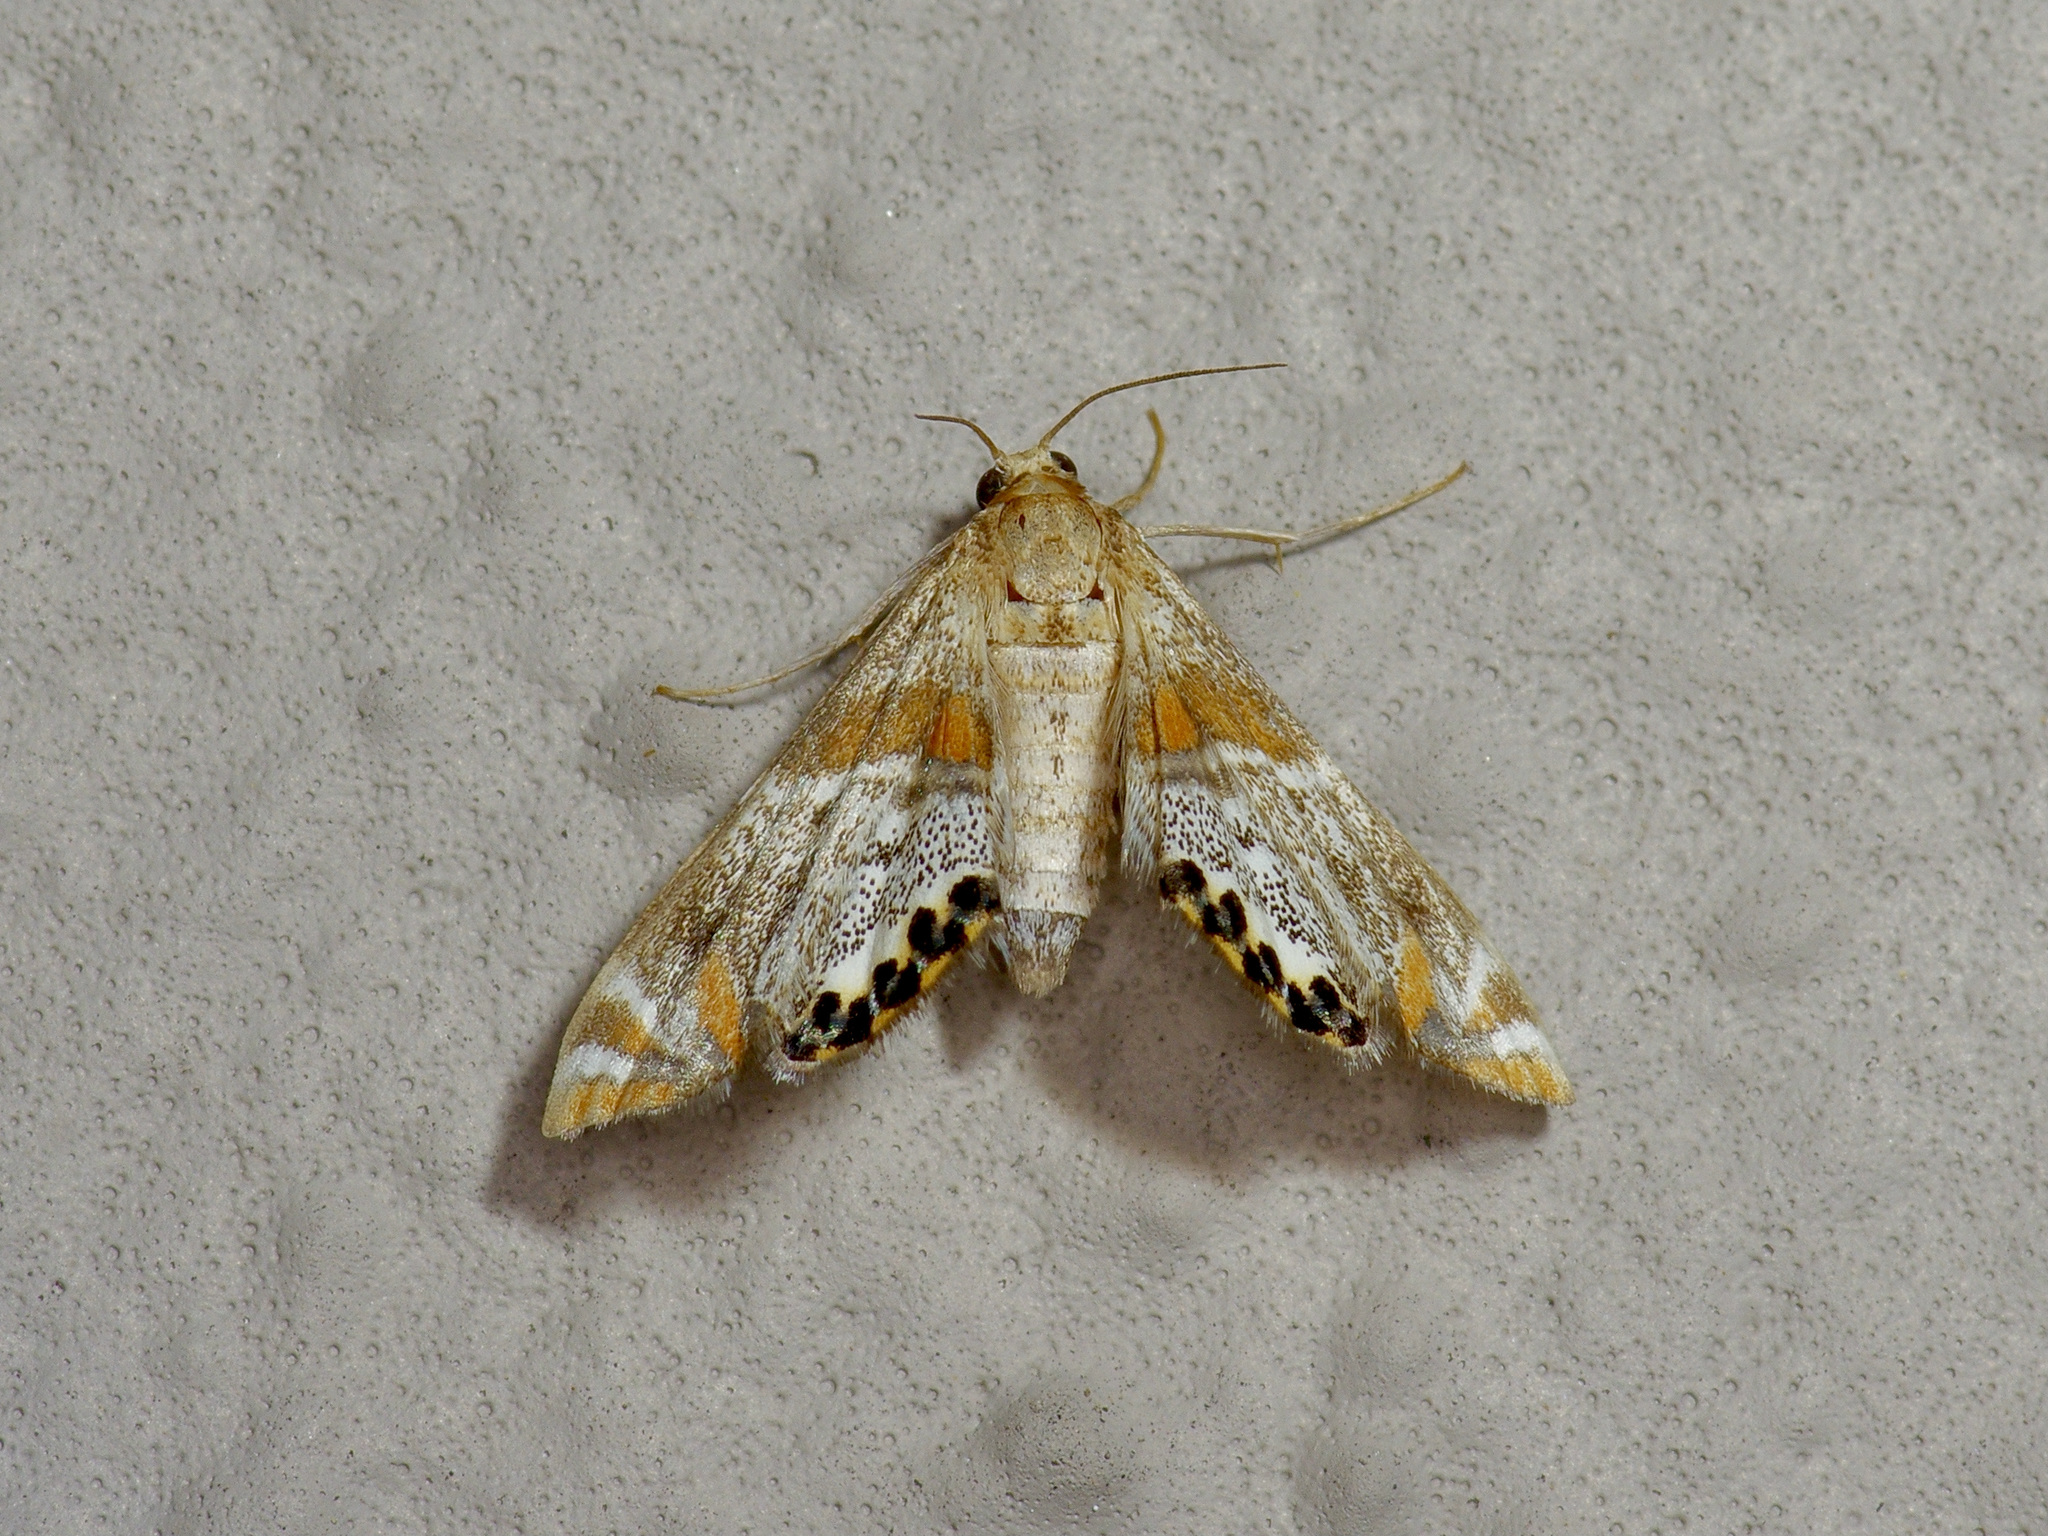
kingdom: Animalia
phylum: Arthropoda
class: Insecta
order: Lepidoptera
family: Crambidae
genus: Petrophila
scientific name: Petrophila jaliscalis
